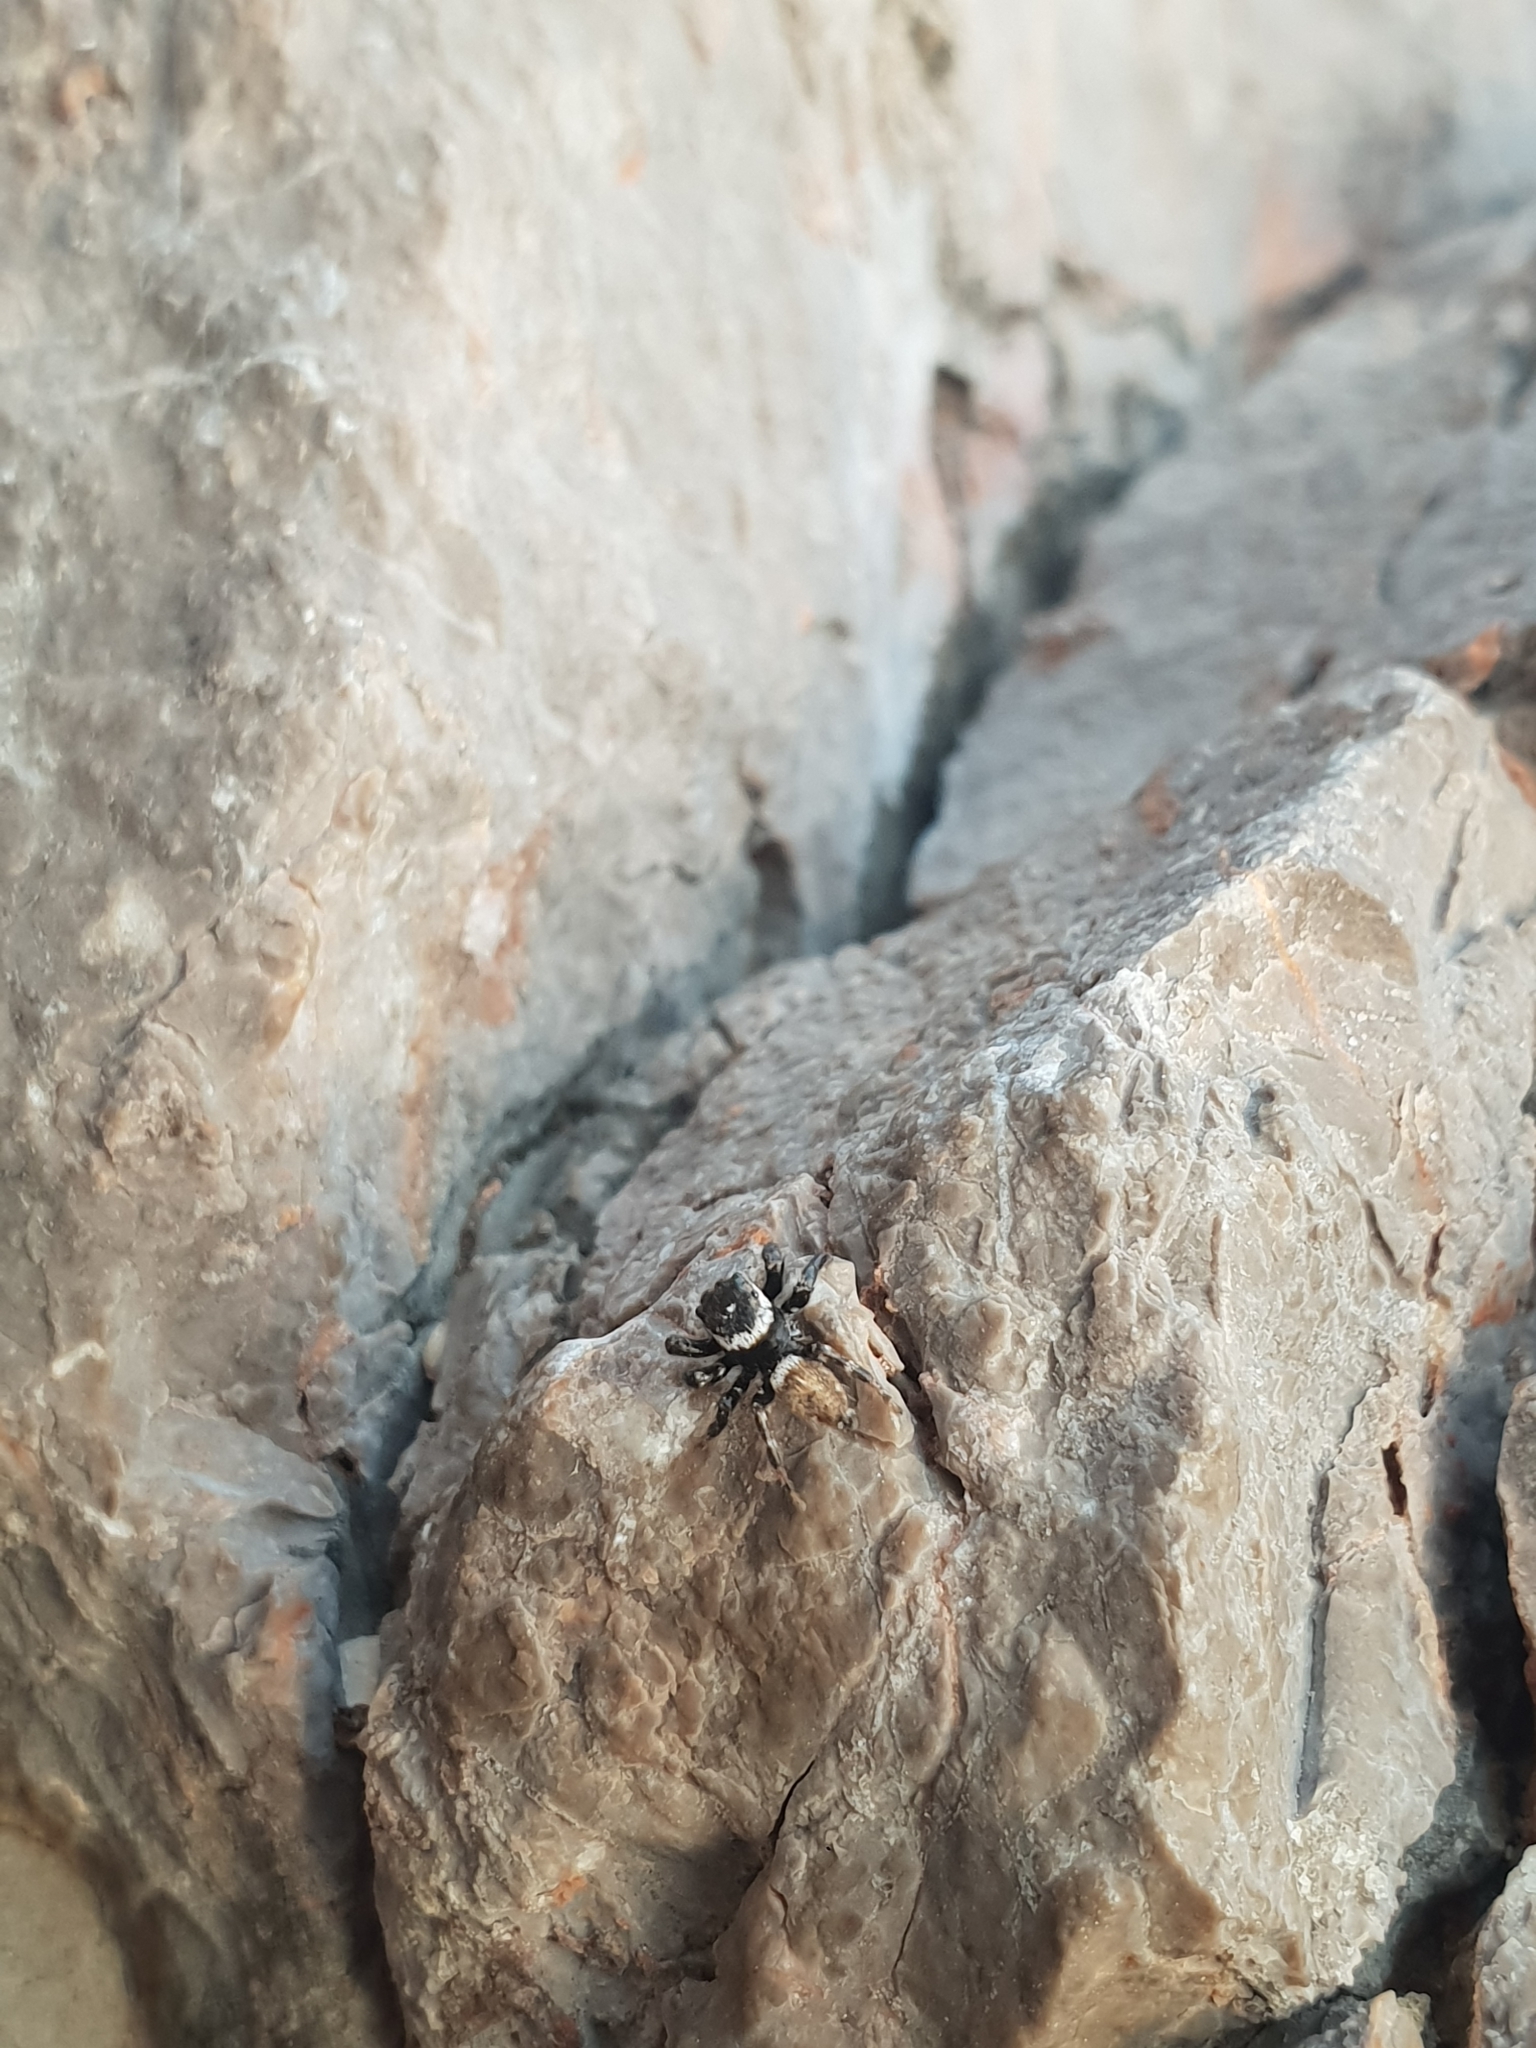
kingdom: Animalia
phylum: Arthropoda
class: Arachnida
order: Araneae
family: Salticidae
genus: Evarcha
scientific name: Evarcha jucunda
